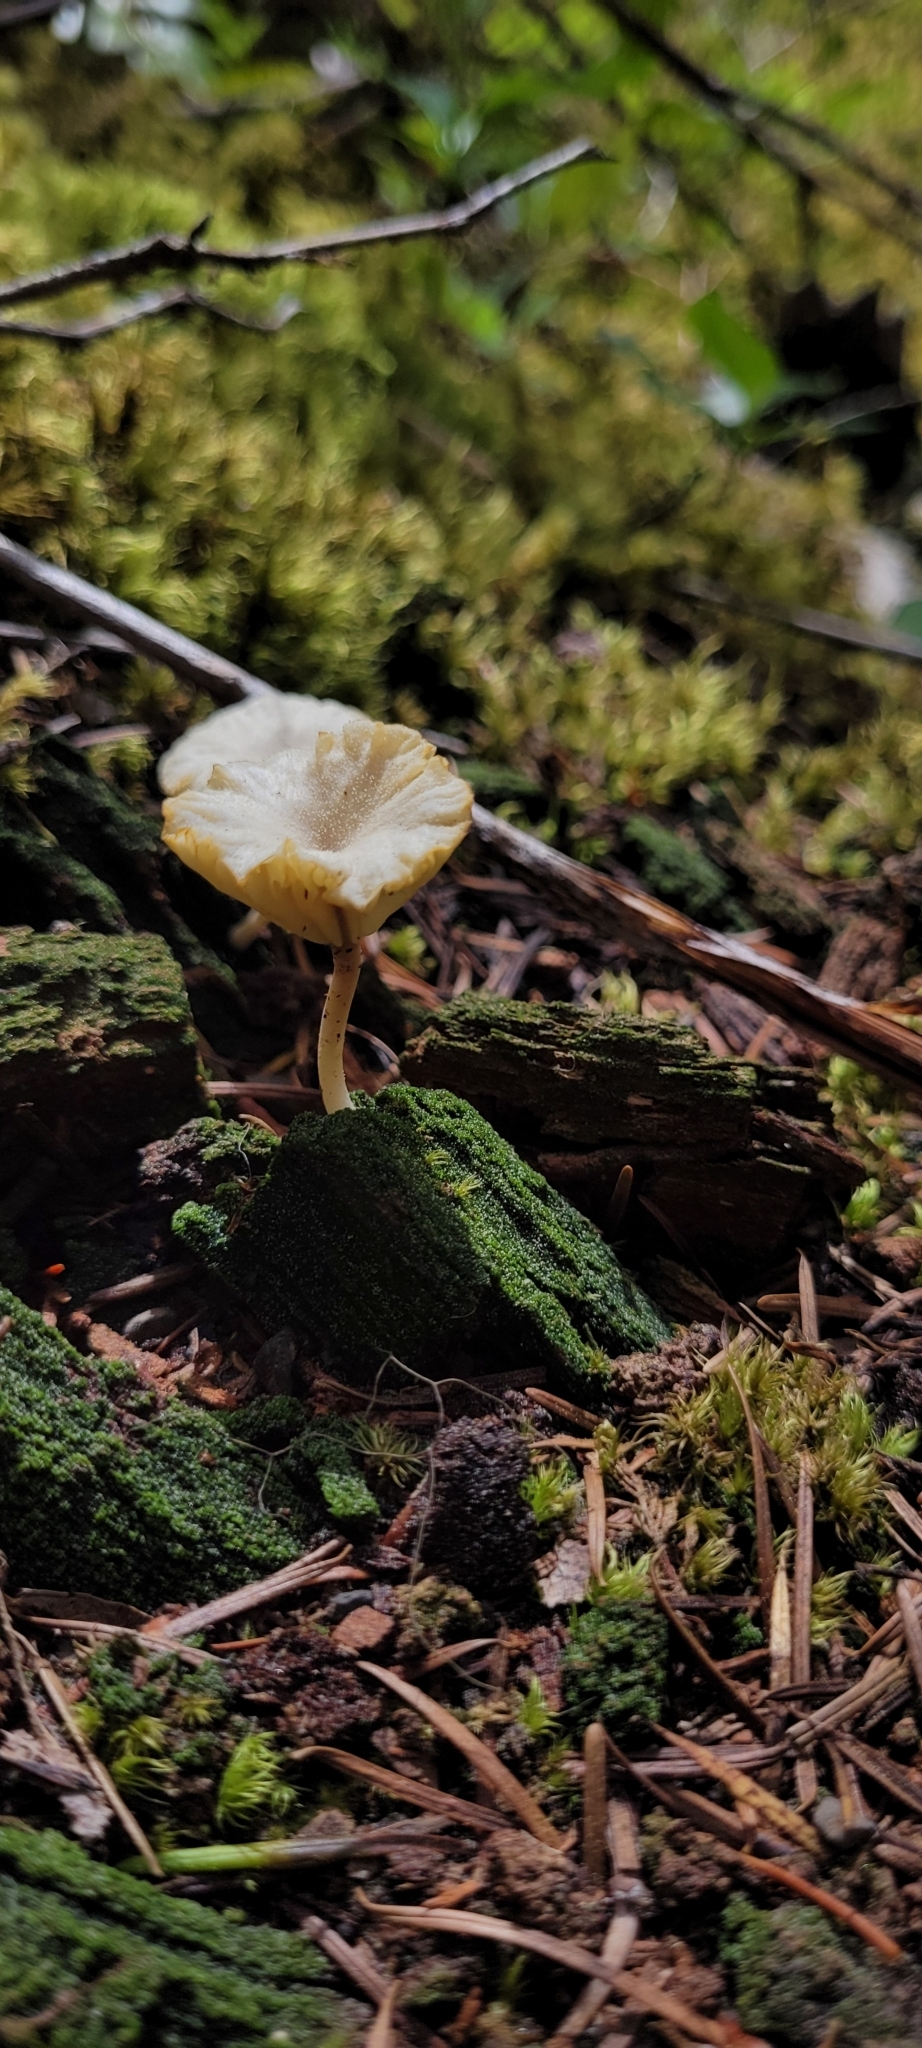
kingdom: Fungi
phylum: Basidiomycota
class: Agaricomycetes
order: Agaricales
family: Hygrophoraceae
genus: Lichenomphalia
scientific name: Lichenomphalia
